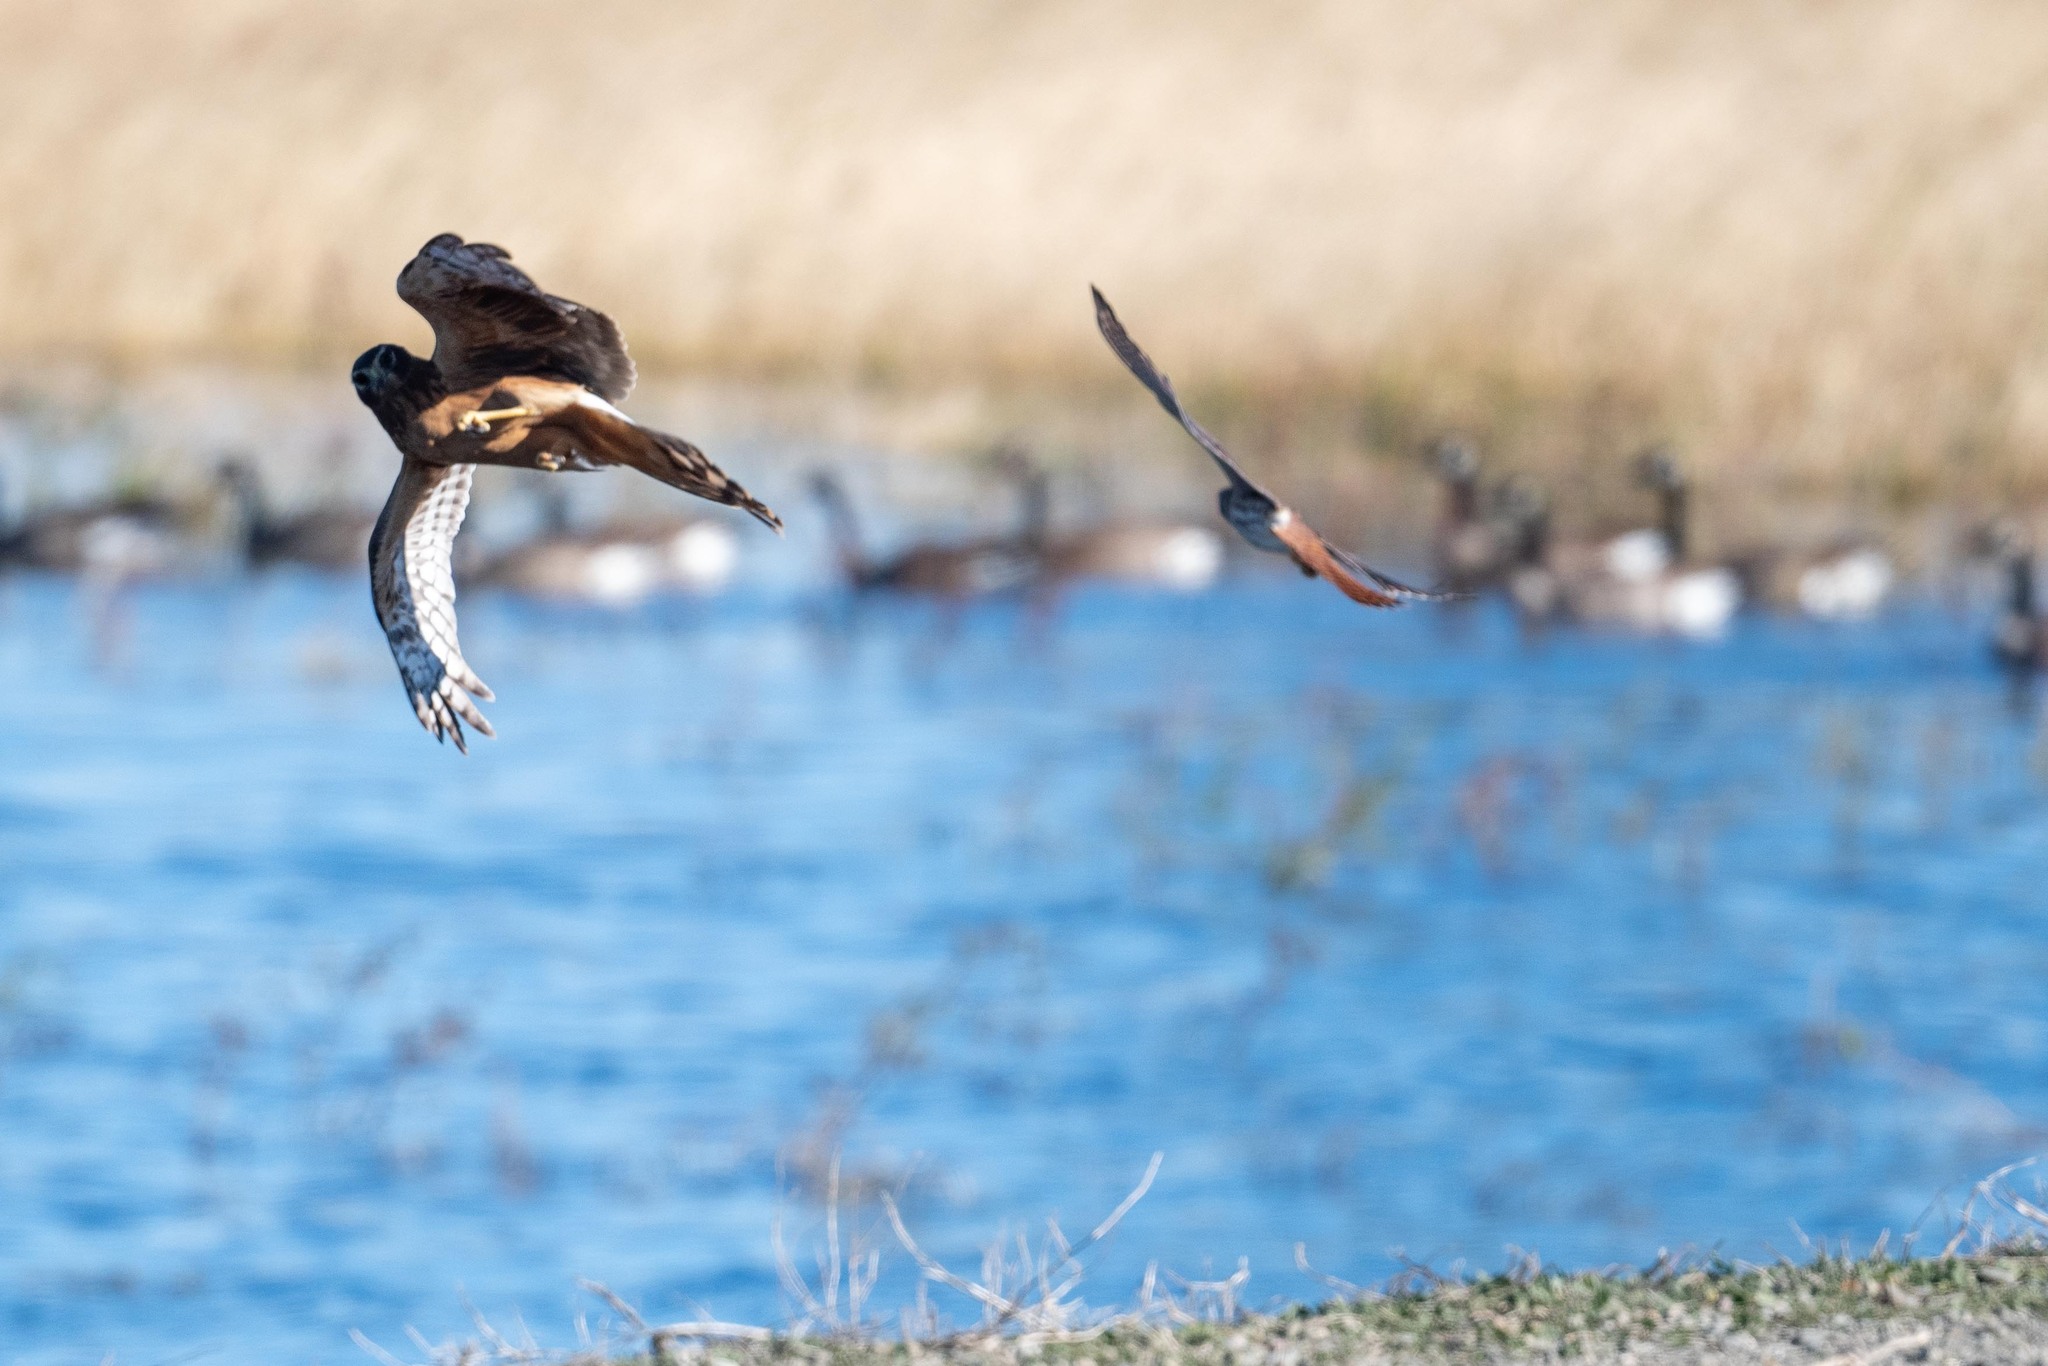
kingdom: Animalia
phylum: Chordata
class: Aves
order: Falconiformes
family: Falconidae
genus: Falco
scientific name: Falco sparverius
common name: American kestrel
